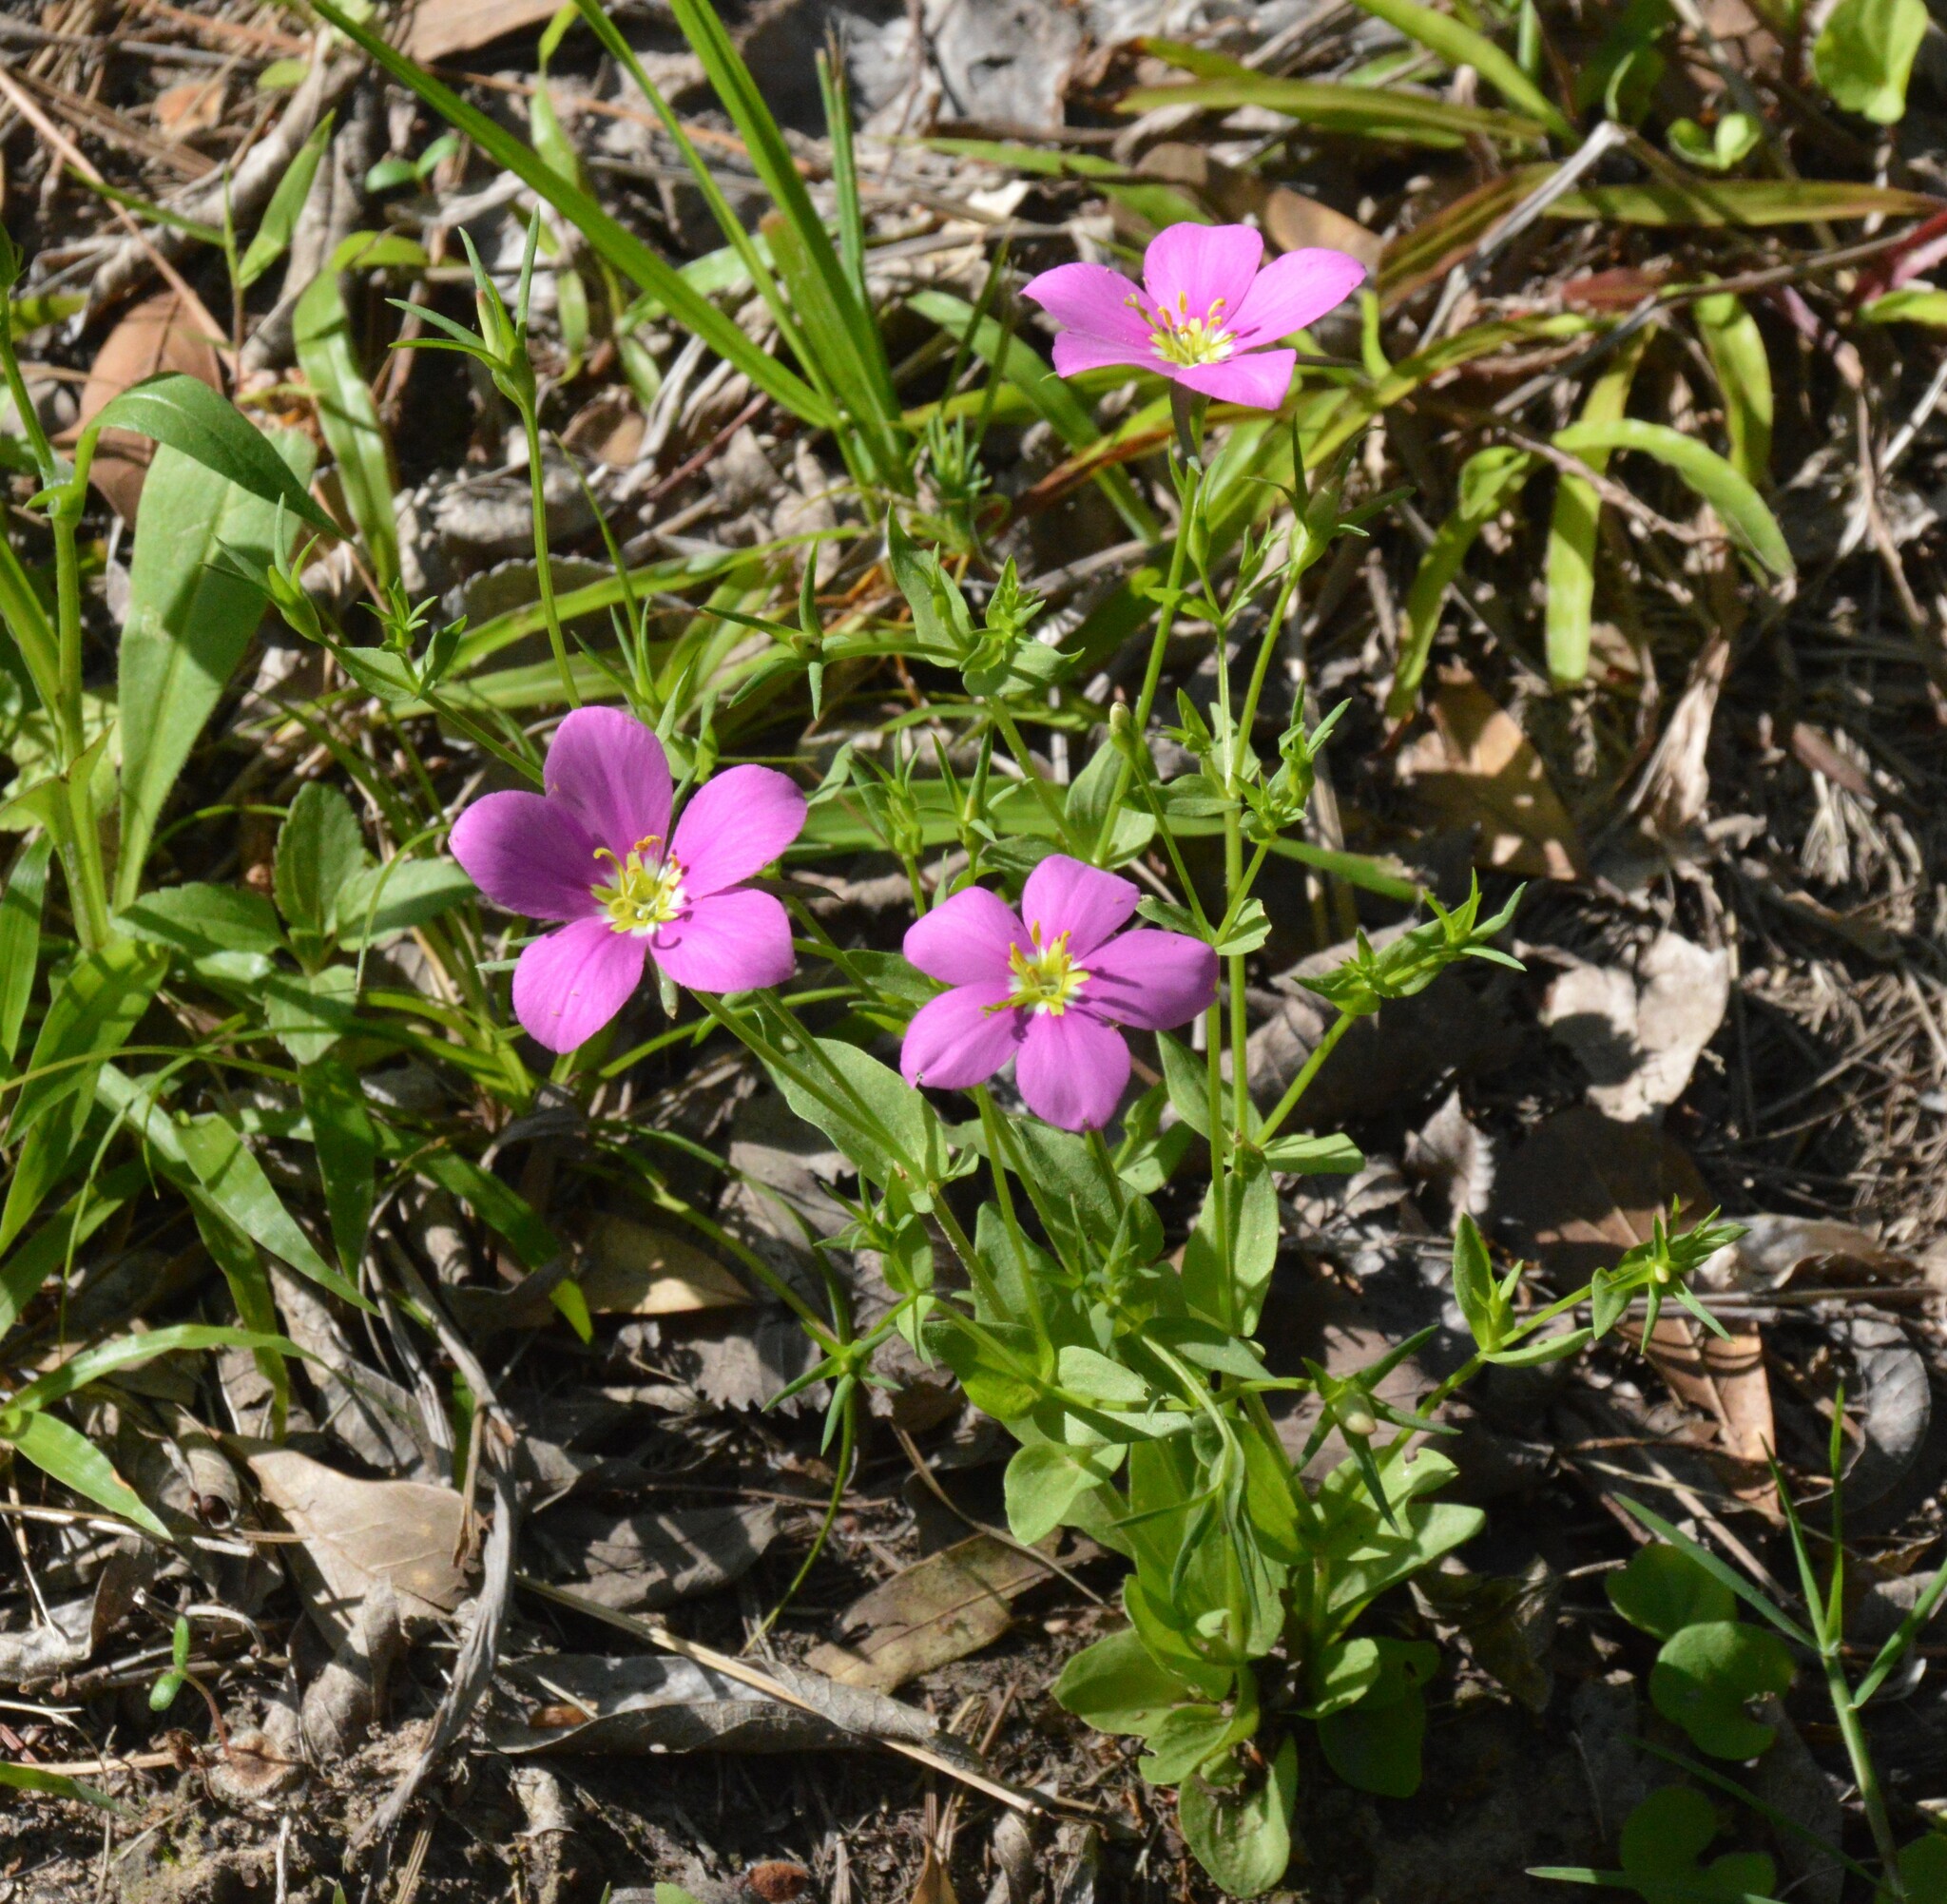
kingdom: Plantae
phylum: Tracheophyta
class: Magnoliopsida
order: Gentianales
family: Gentianaceae
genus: Sabatia
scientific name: Sabatia campestris
